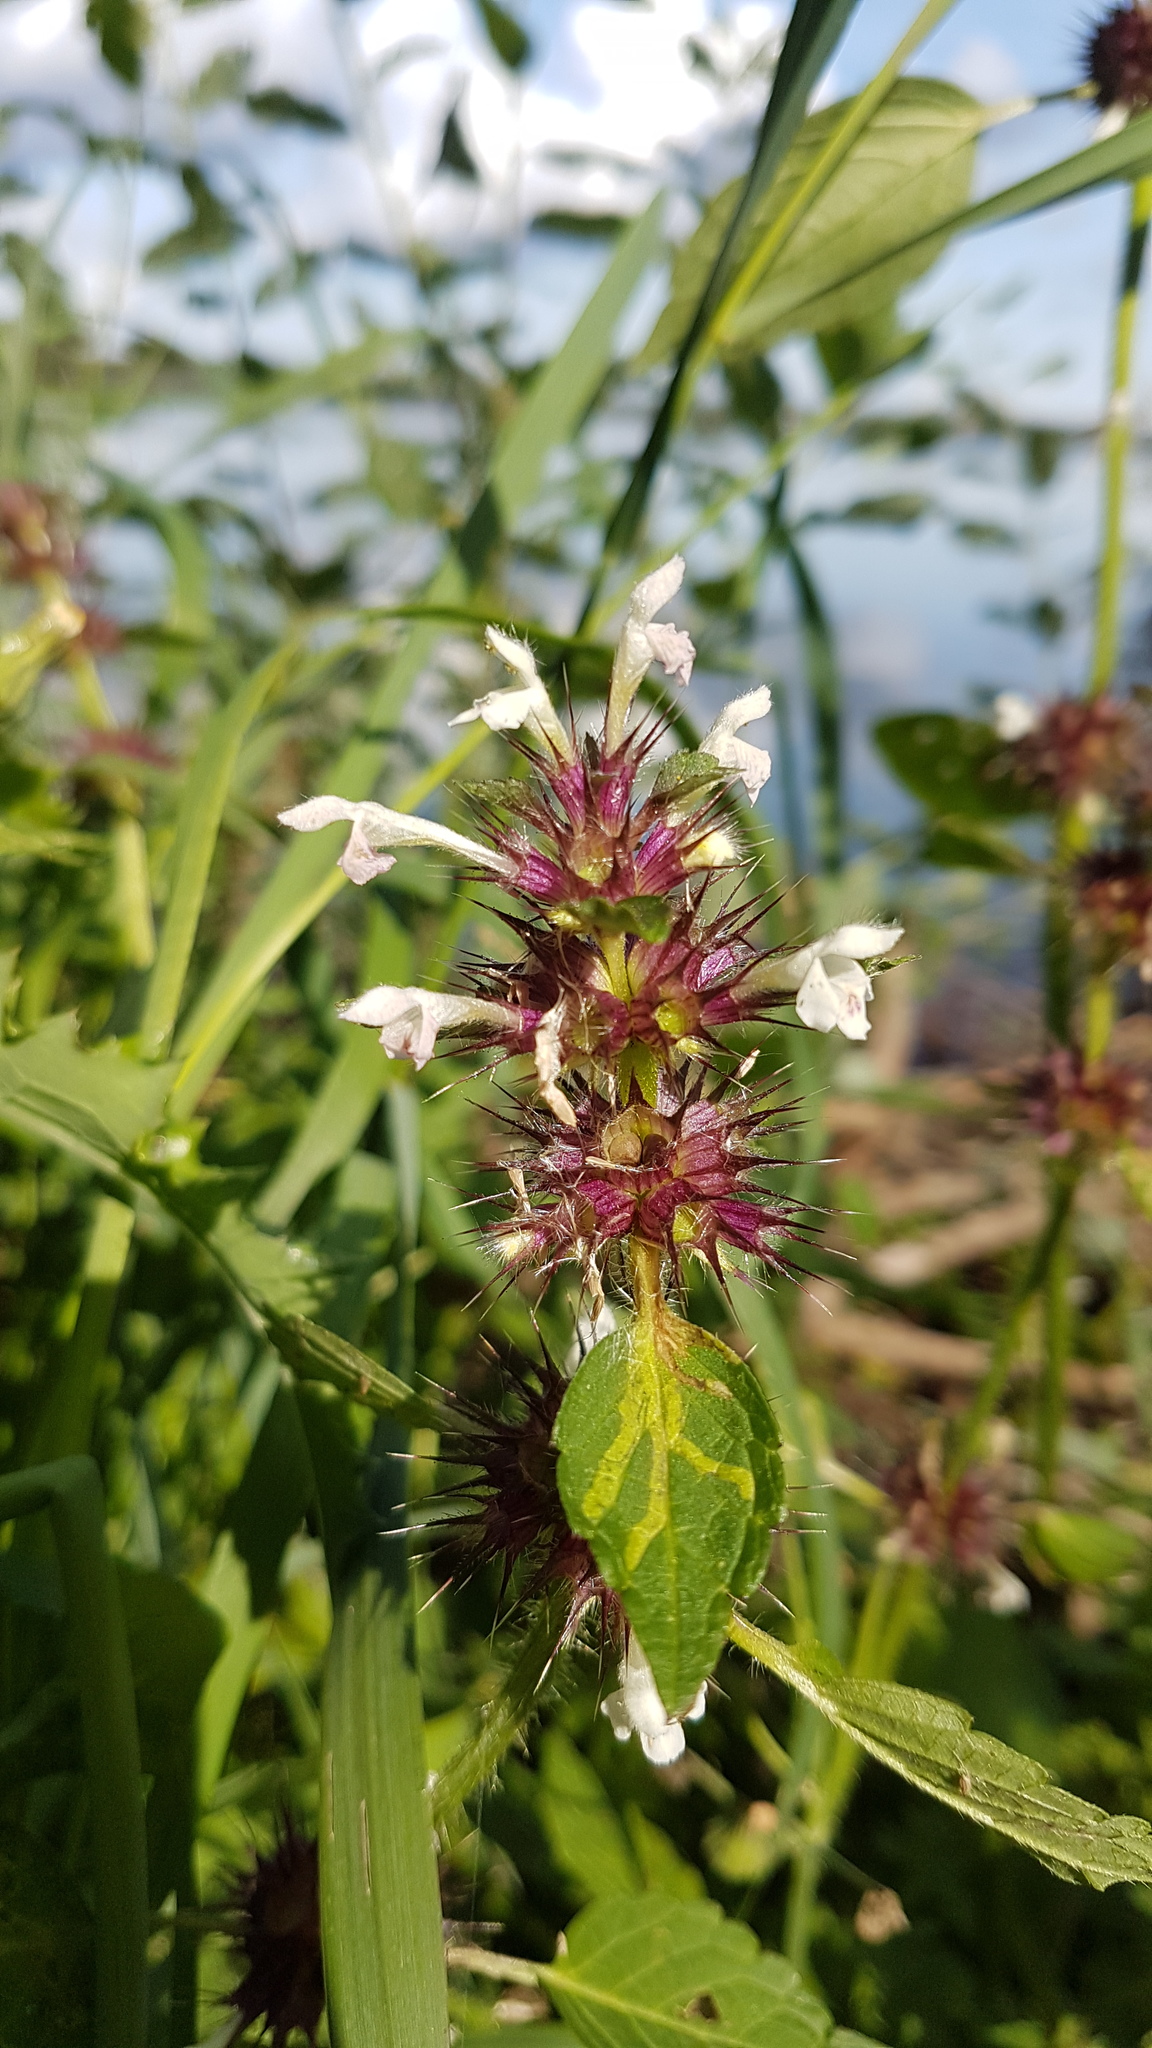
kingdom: Plantae
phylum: Tracheophyta
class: Magnoliopsida
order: Lamiales
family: Lamiaceae
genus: Galeopsis
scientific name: Galeopsis tetrahit
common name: Common hemp-nettle
